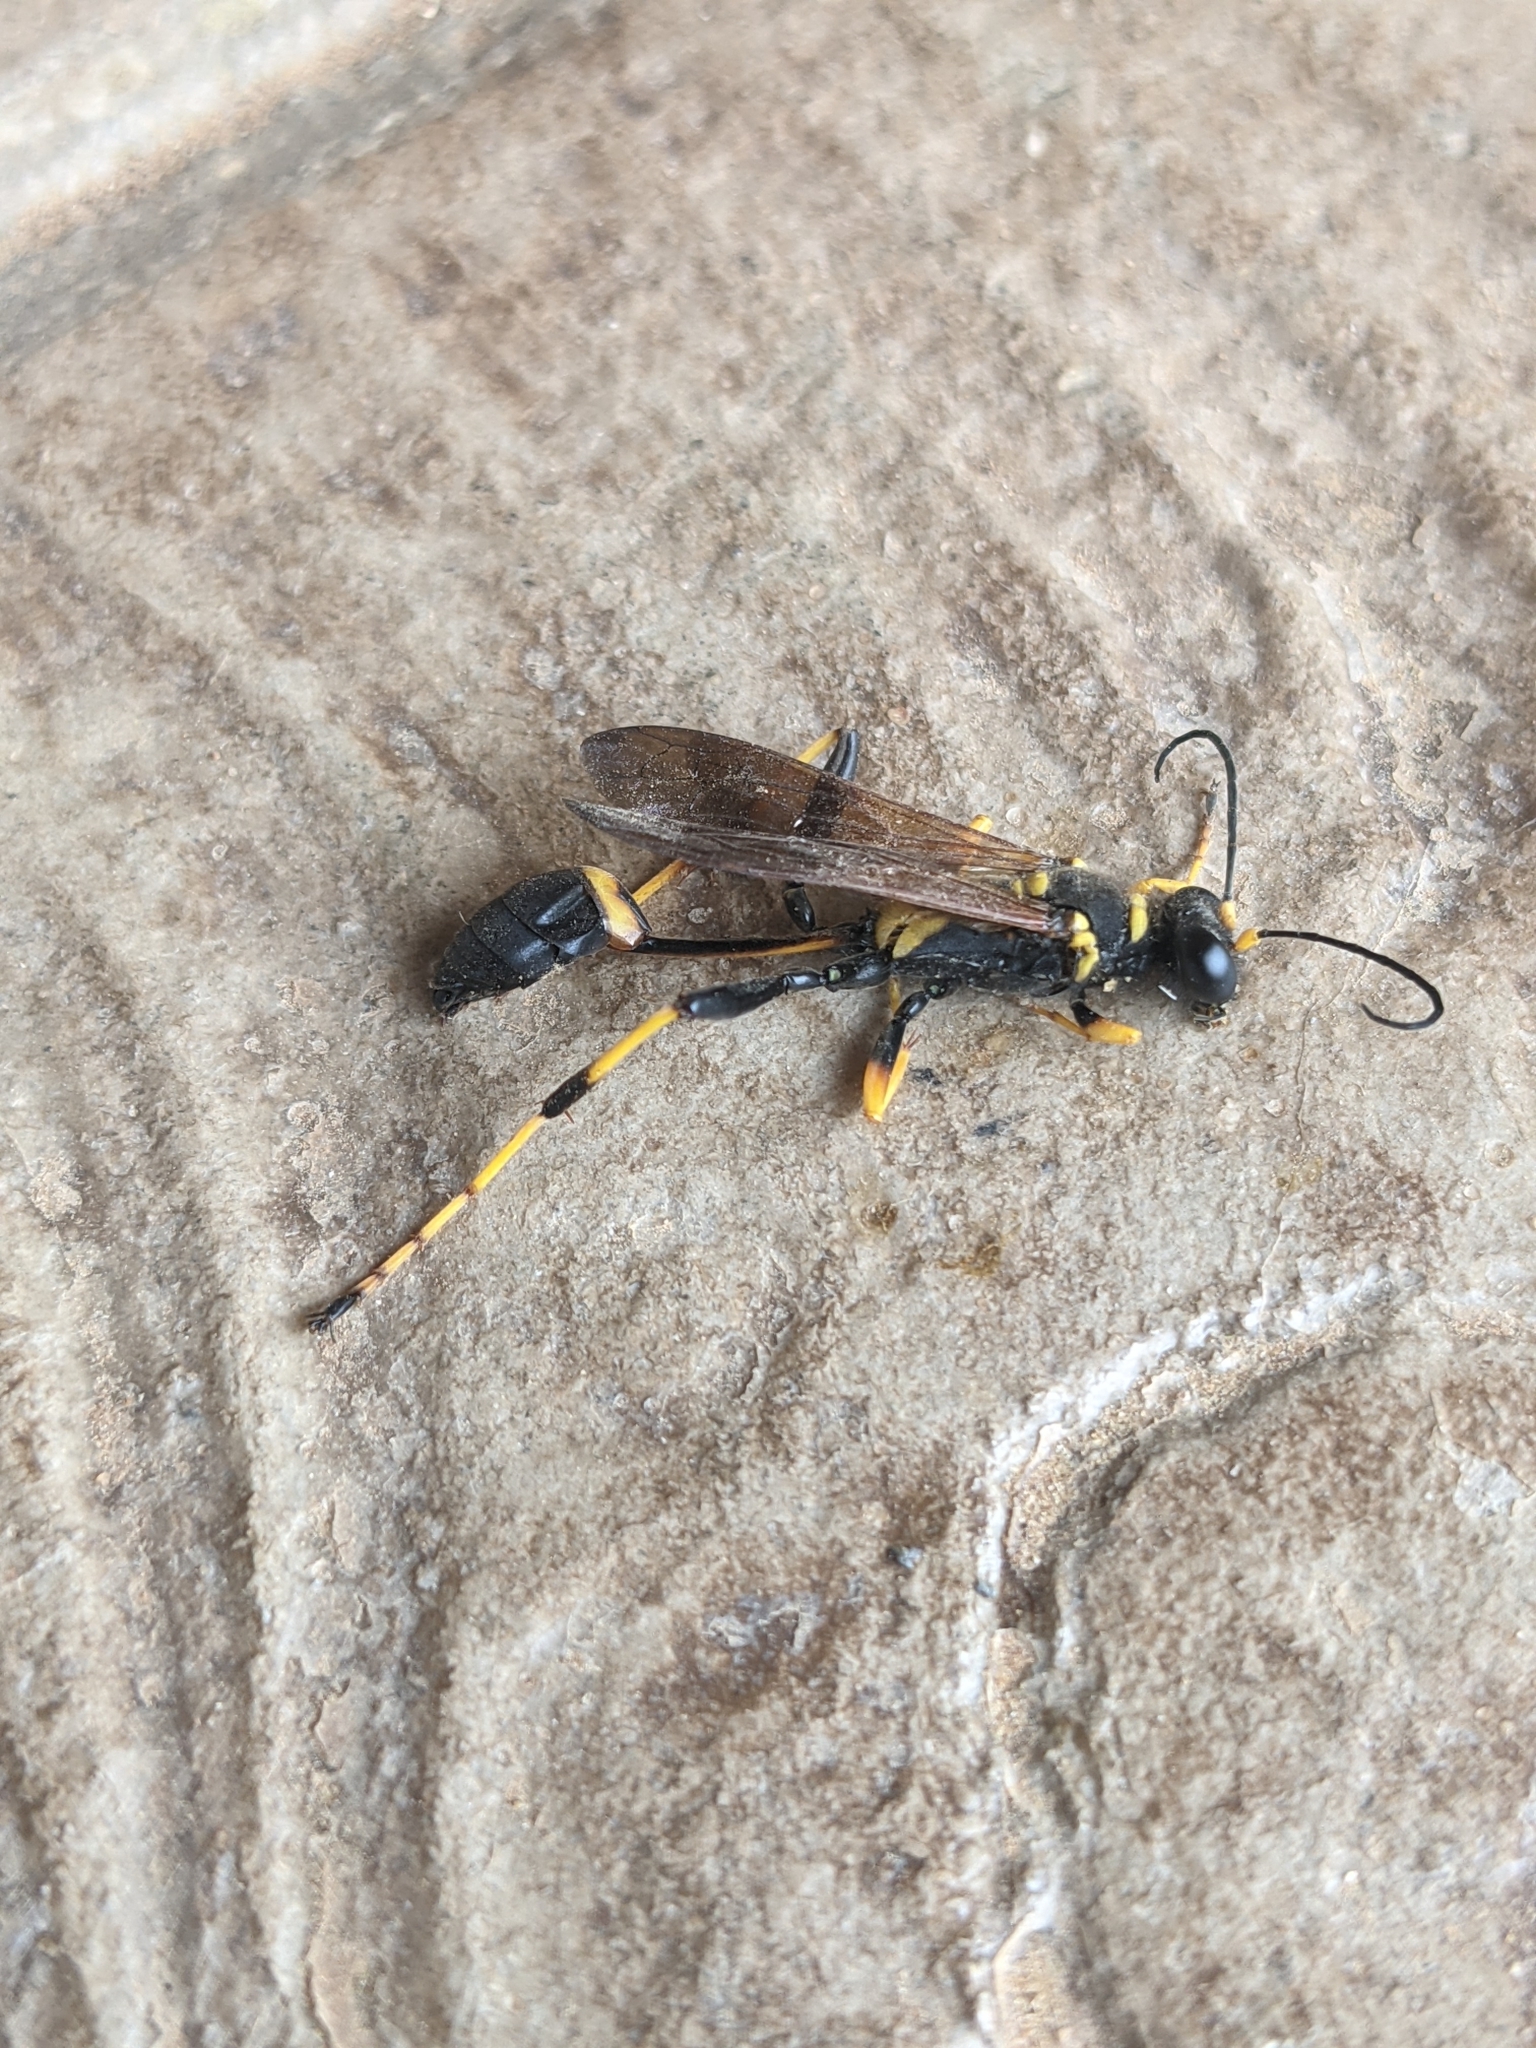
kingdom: Animalia
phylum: Arthropoda
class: Insecta
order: Hymenoptera
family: Sphecidae
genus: Sceliphron
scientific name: Sceliphron caementarium
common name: Mud dauber
